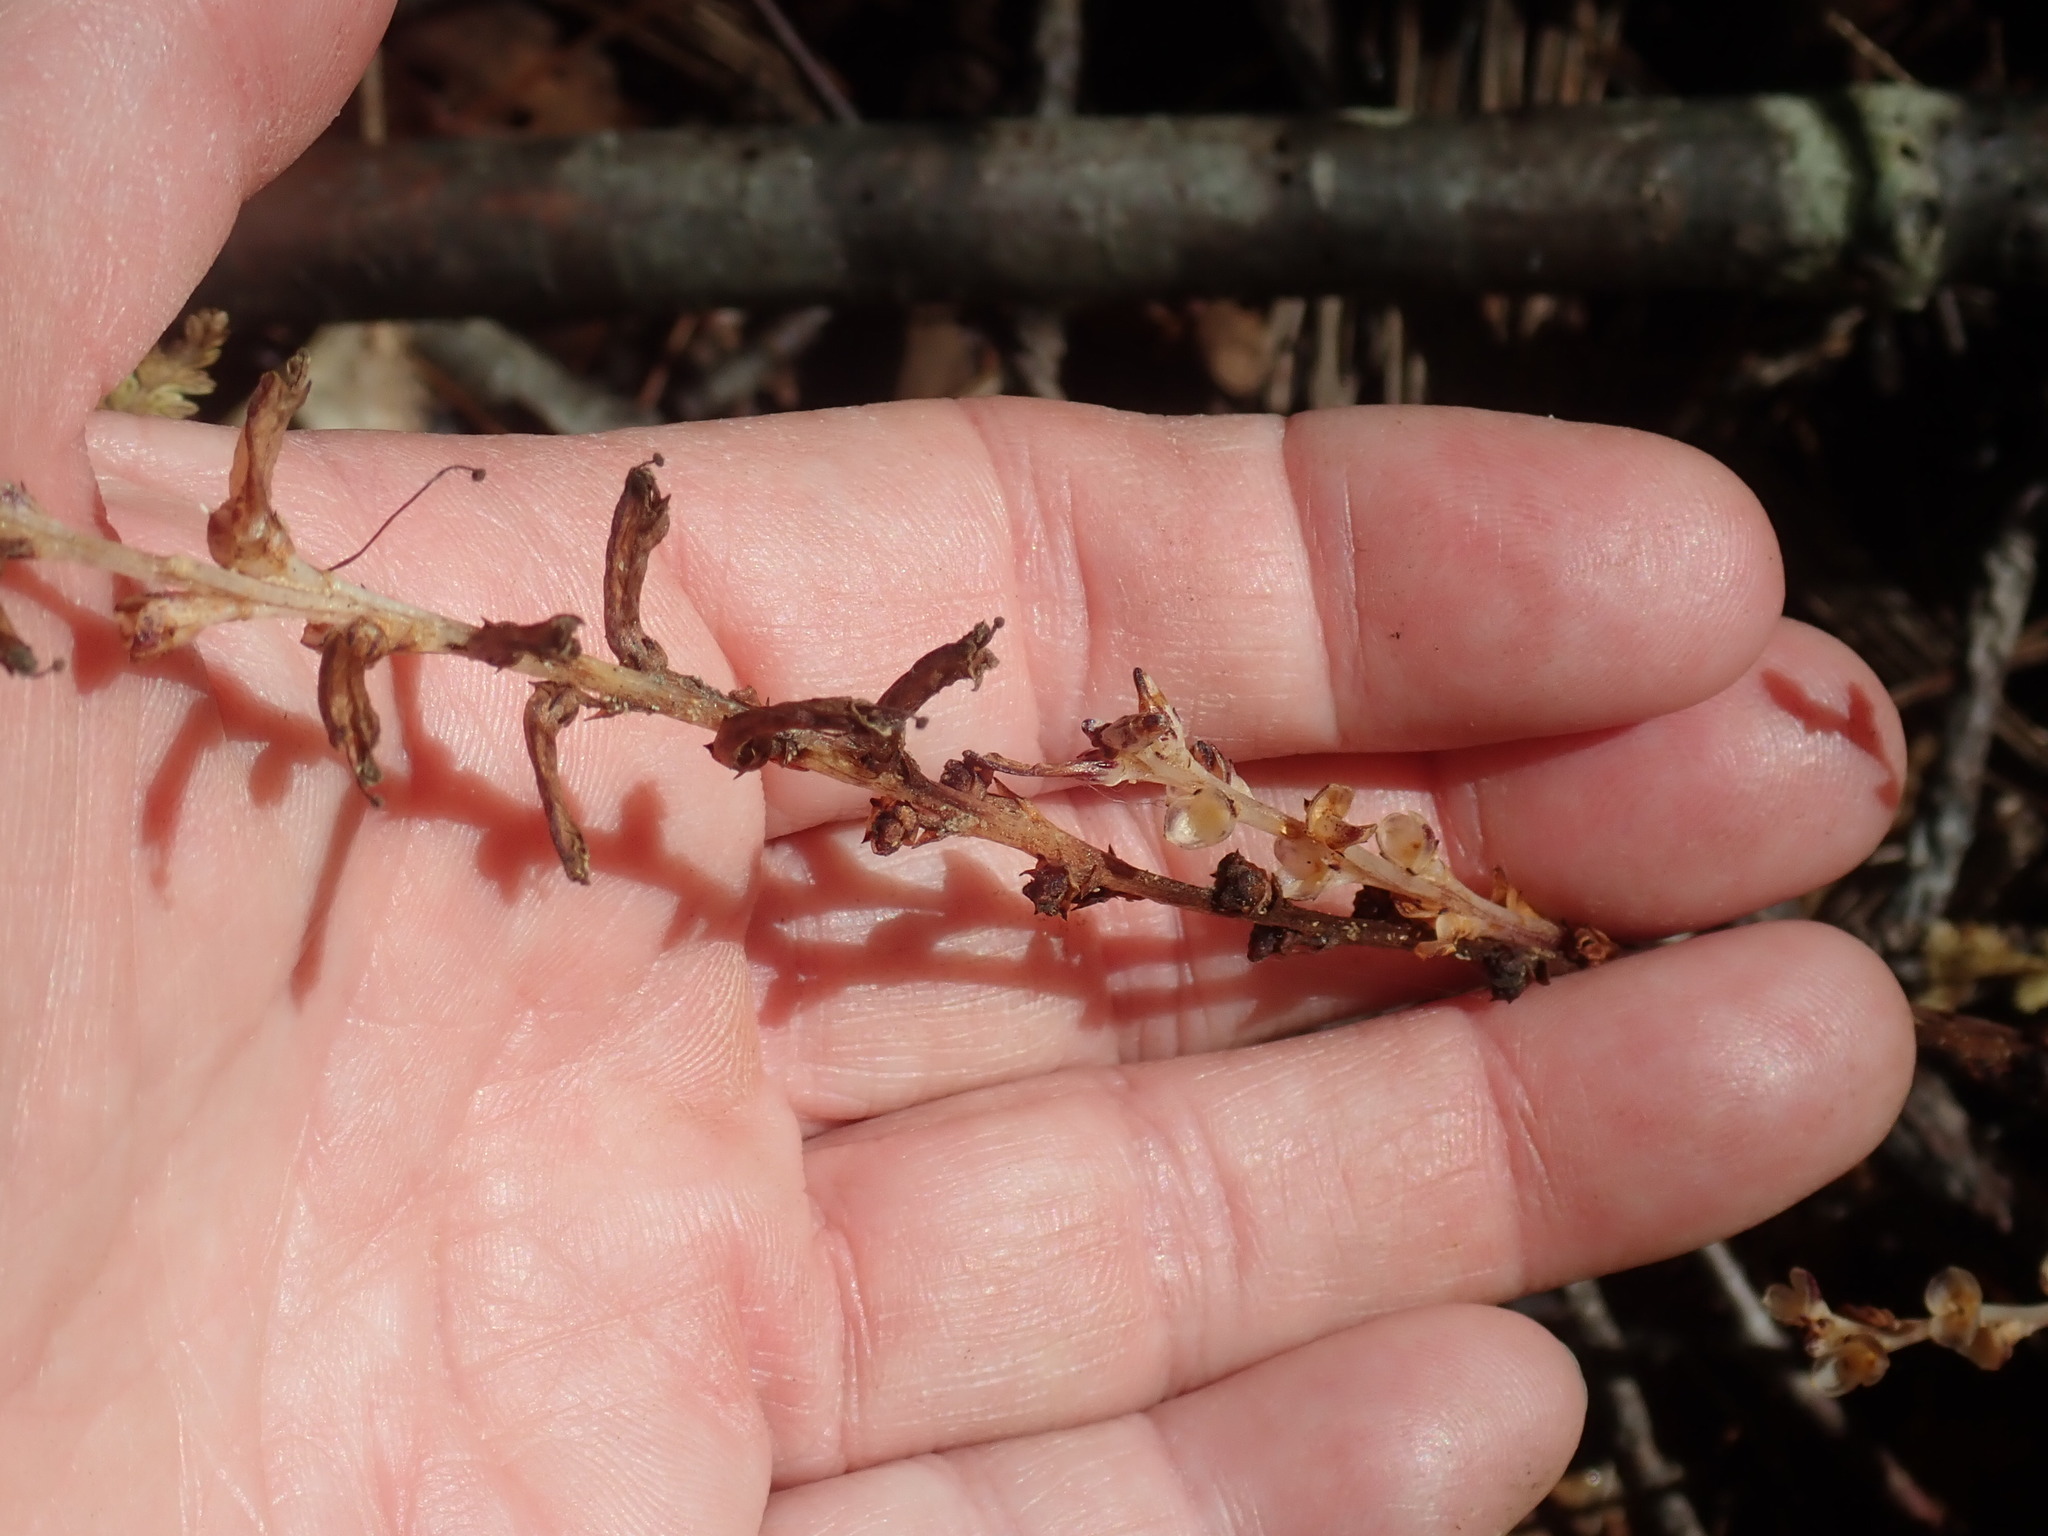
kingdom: Plantae
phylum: Tracheophyta
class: Magnoliopsida
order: Lamiales
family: Orobanchaceae
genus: Epifagus
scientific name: Epifagus virginiana
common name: Beechdrops
